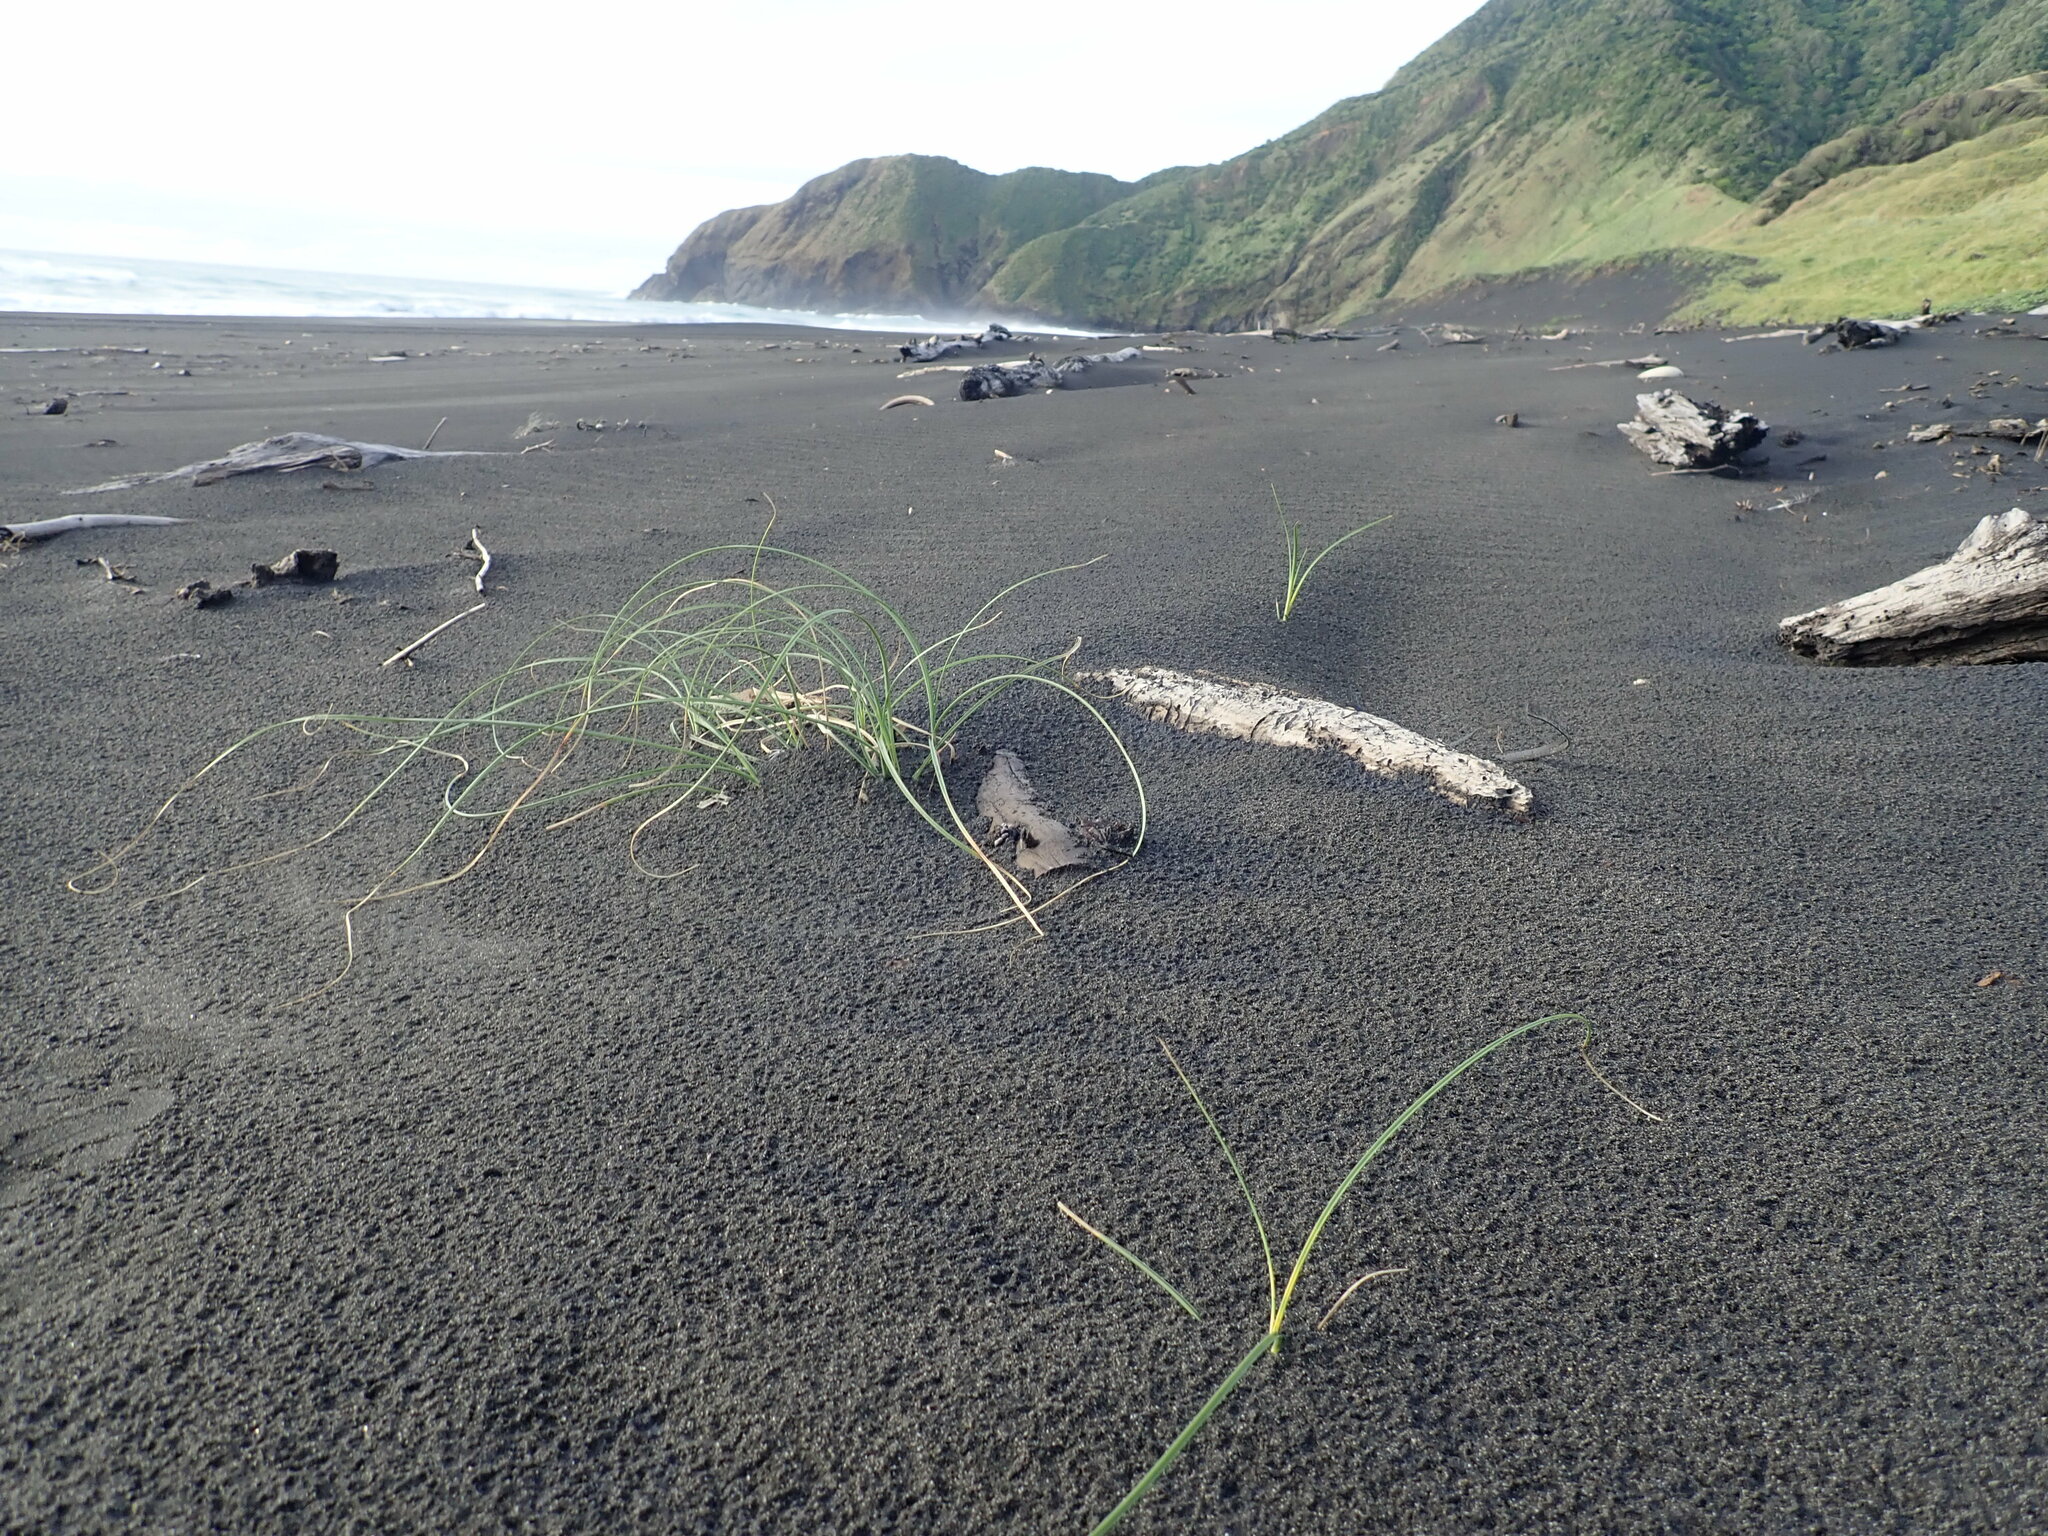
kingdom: Plantae
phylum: Tracheophyta
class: Liliopsida
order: Poales
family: Cyperaceae
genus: Carex
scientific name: Carex pumila
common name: Dwarf sedge
